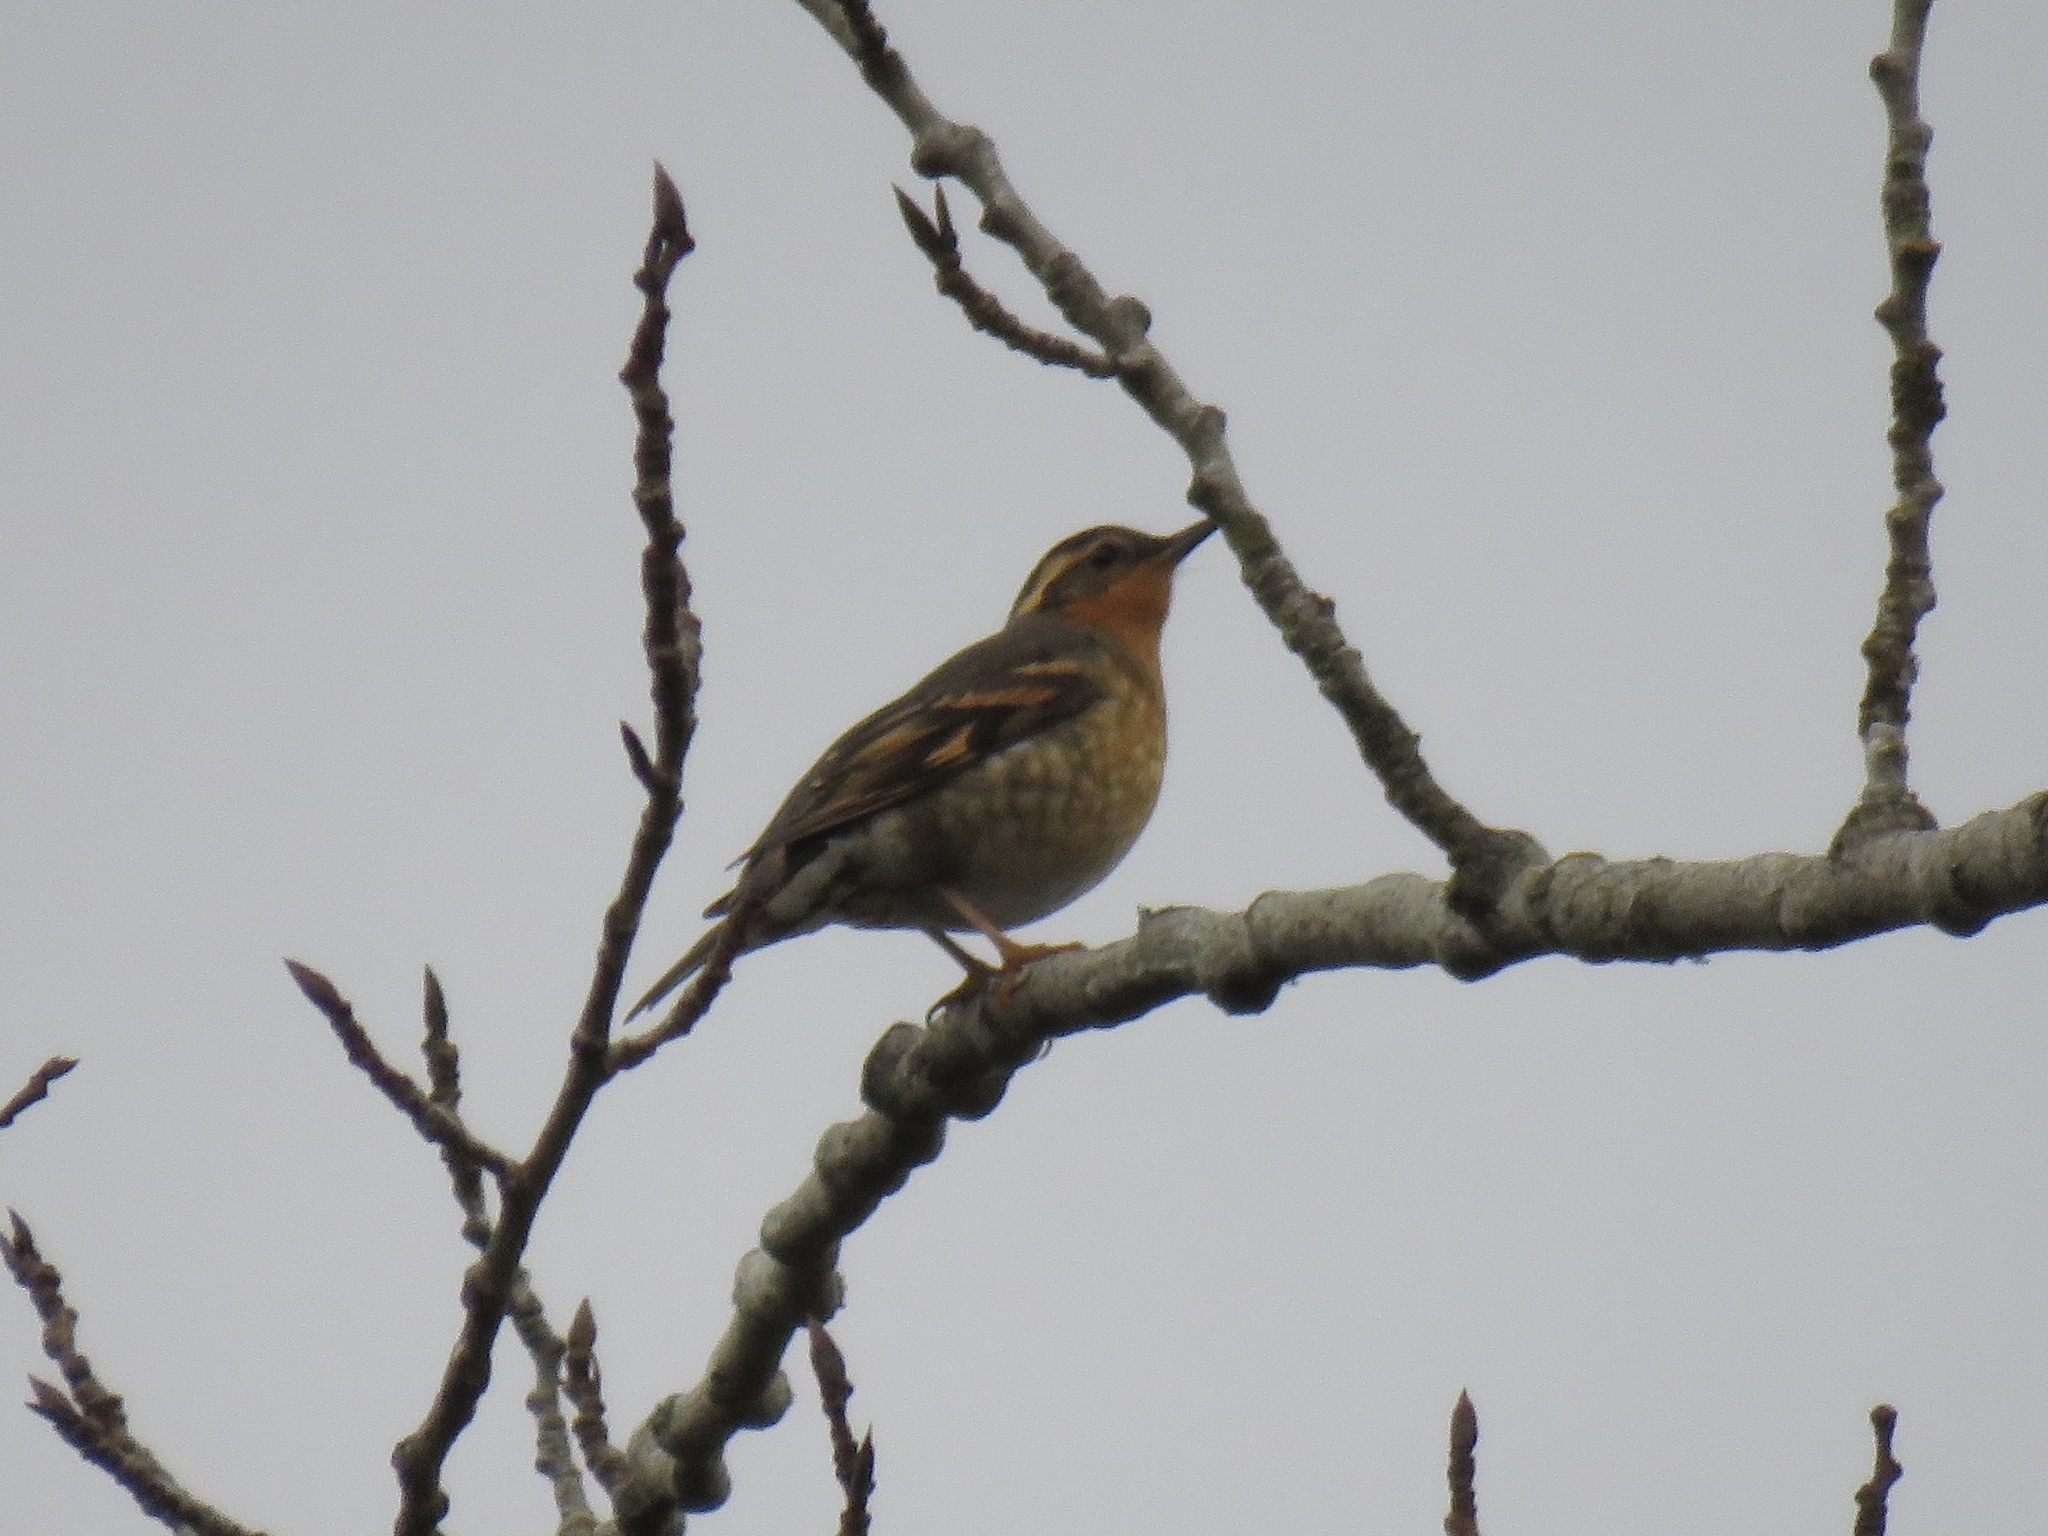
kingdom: Animalia
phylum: Chordata
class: Aves
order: Passeriformes
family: Turdidae
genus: Ixoreus
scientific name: Ixoreus naevius
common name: Varied thrush
